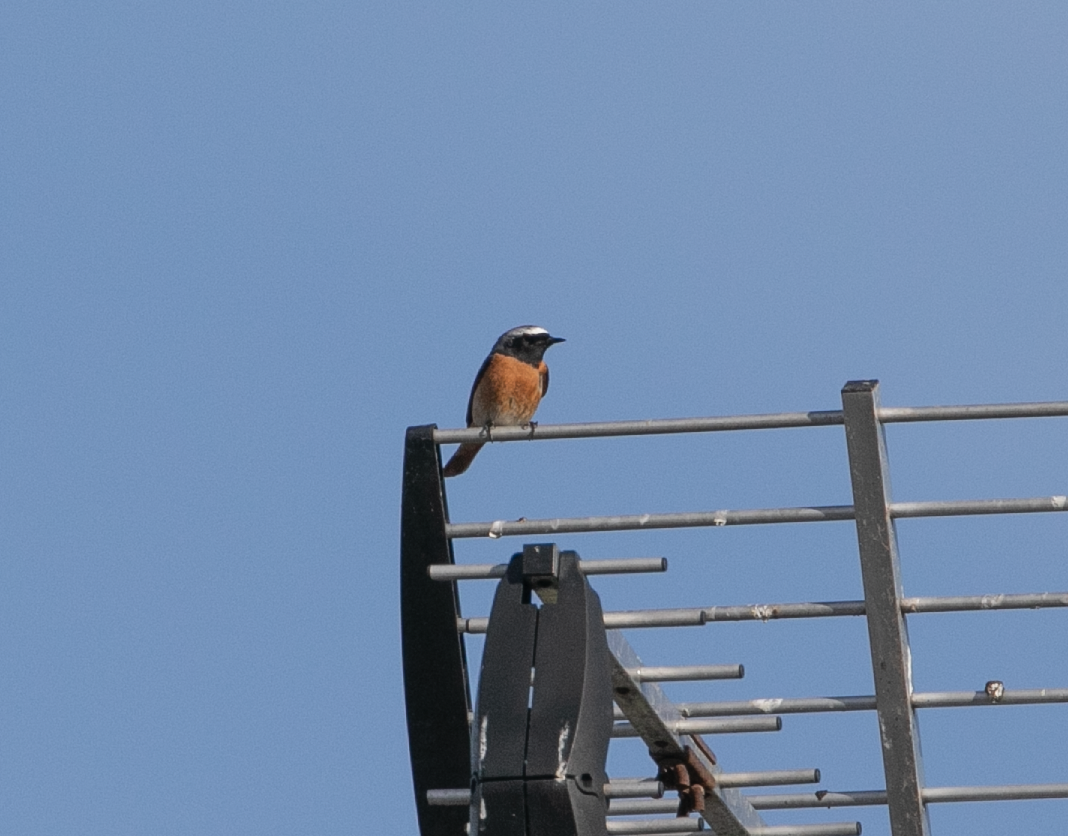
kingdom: Animalia
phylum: Chordata
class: Aves
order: Passeriformes
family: Muscicapidae
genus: Phoenicurus
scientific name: Phoenicurus phoenicurus
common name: Common redstart
